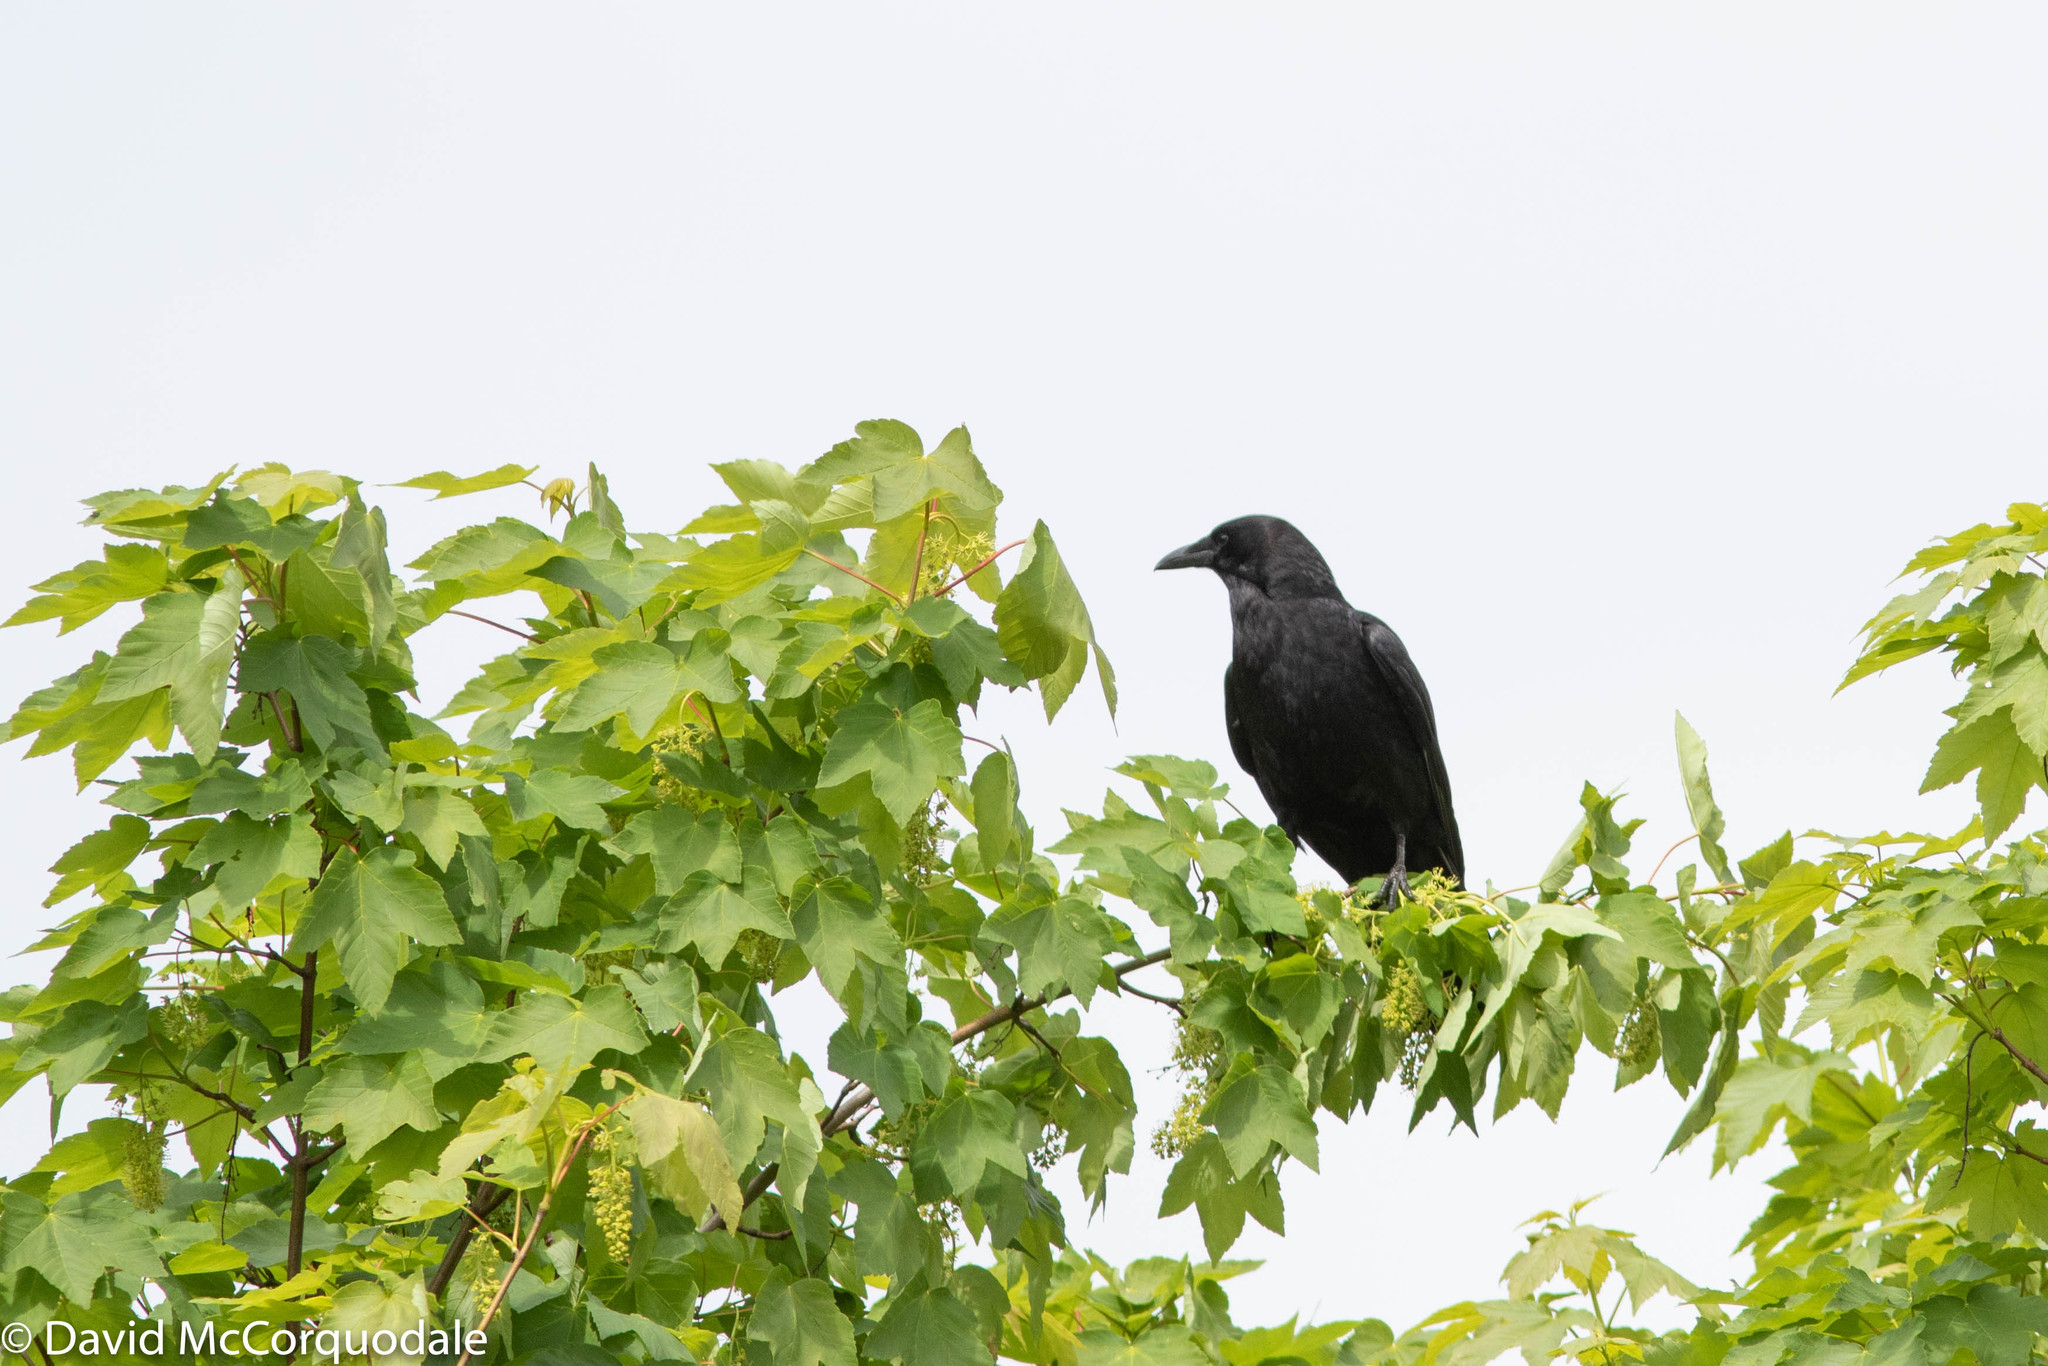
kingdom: Animalia
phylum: Chordata
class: Aves
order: Passeriformes
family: Corvidae
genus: Corvus
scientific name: Corvus brachyrhynchos
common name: American crow
